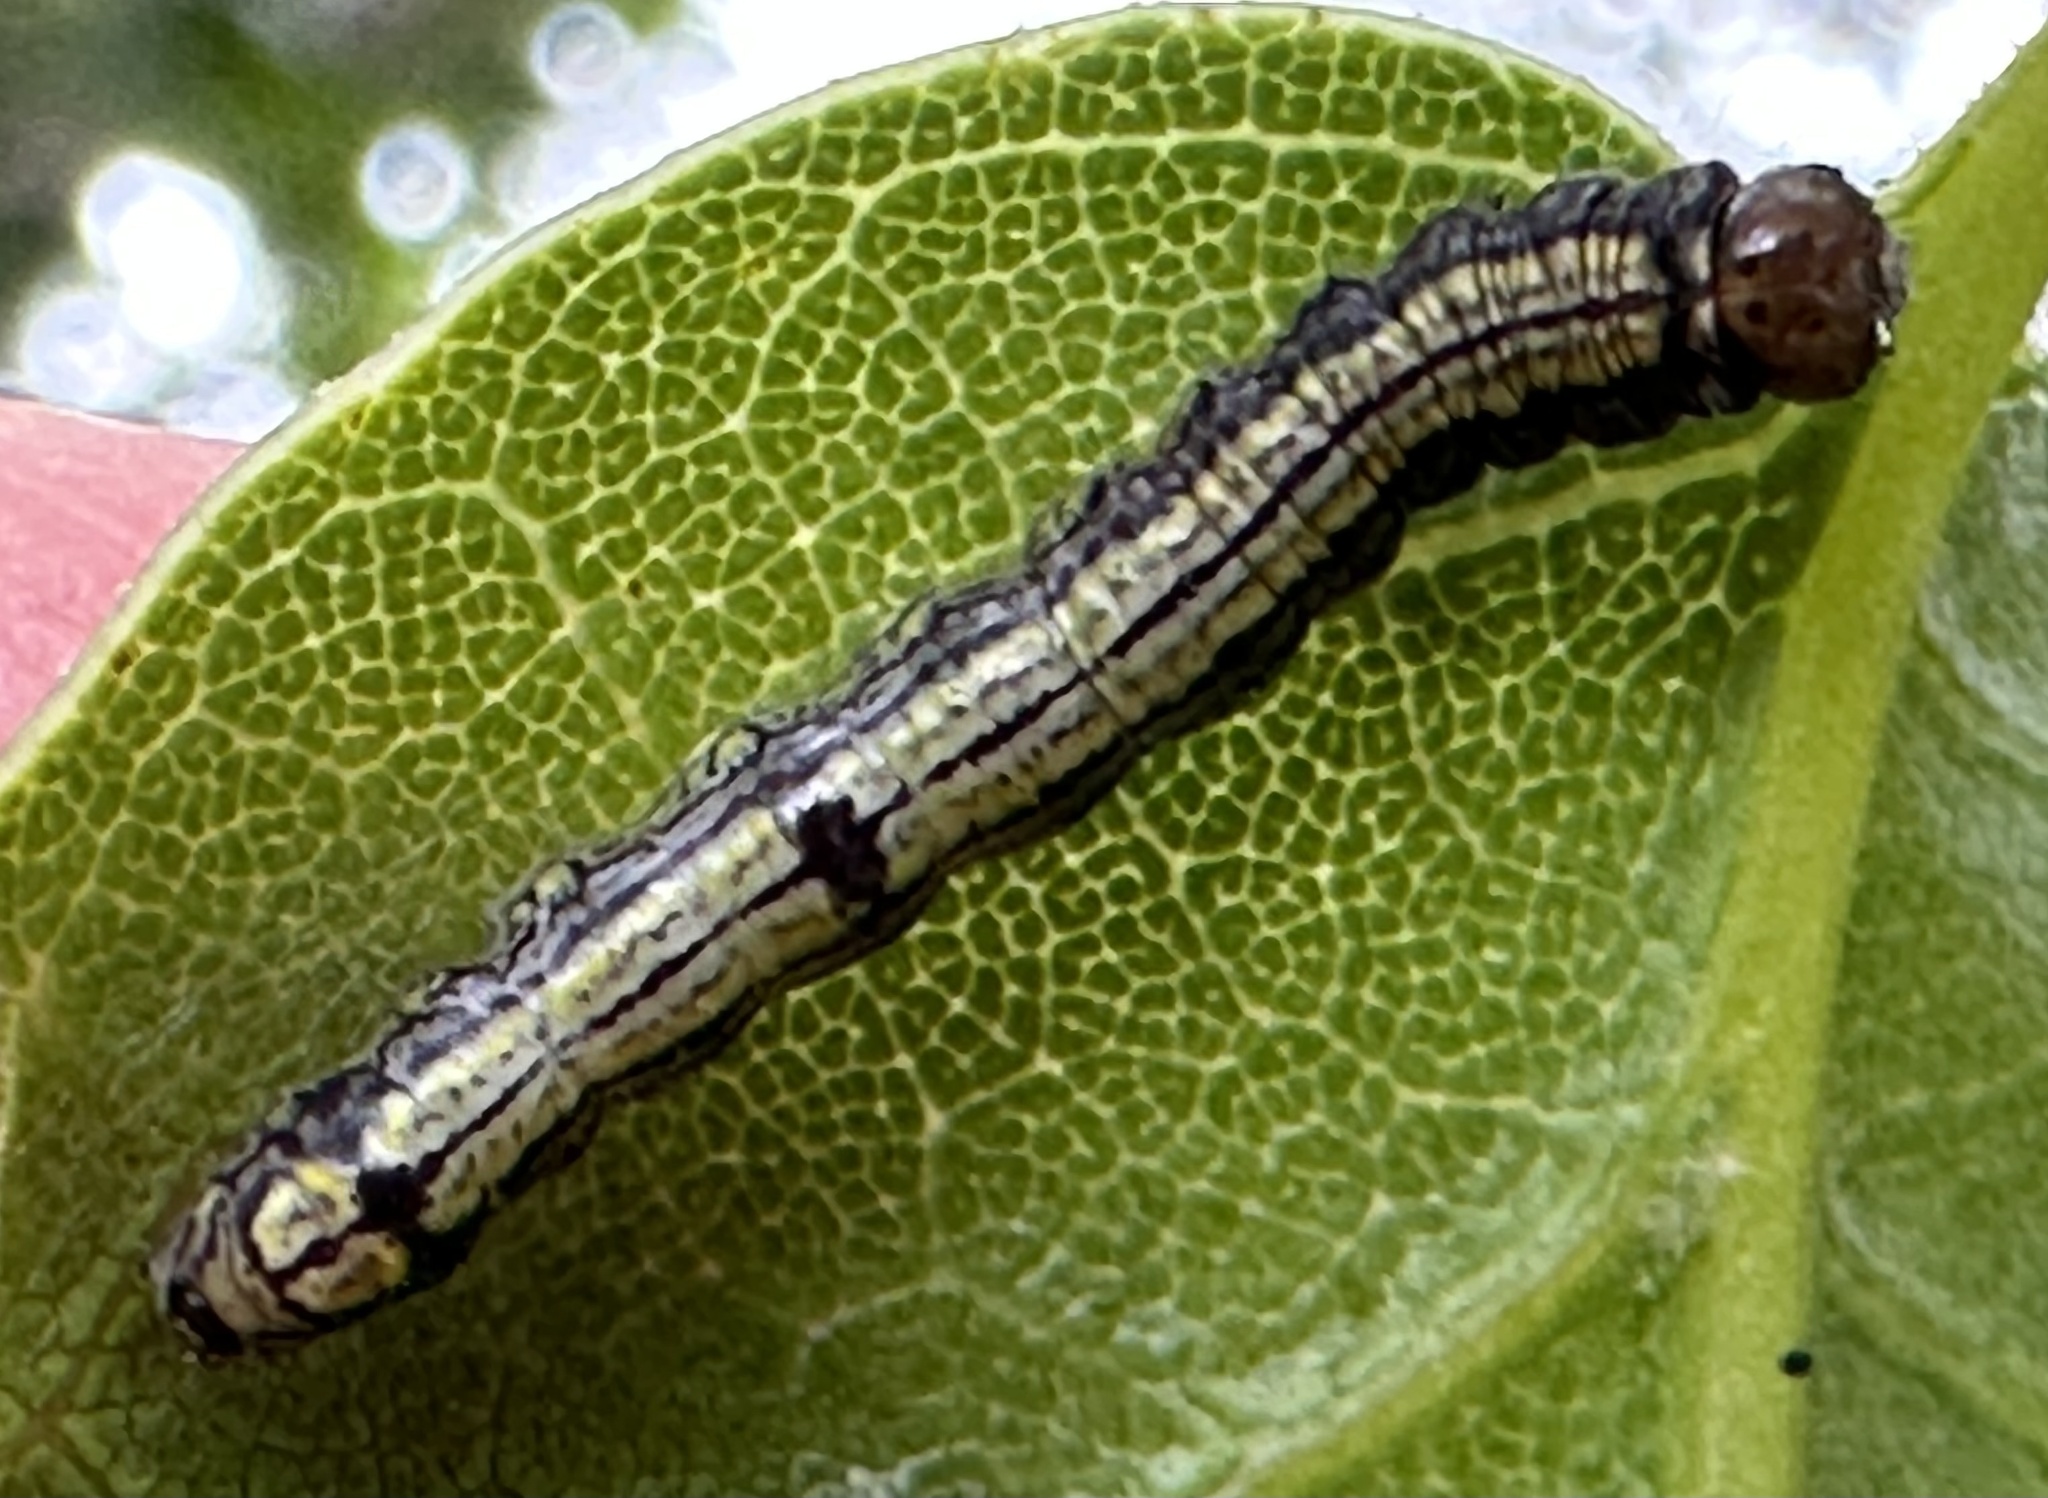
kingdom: Animalia
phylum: Arthropoda
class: Insecta
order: Lepidoptera
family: Notodontidae
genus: Phryganidia
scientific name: Phryganidia californica
